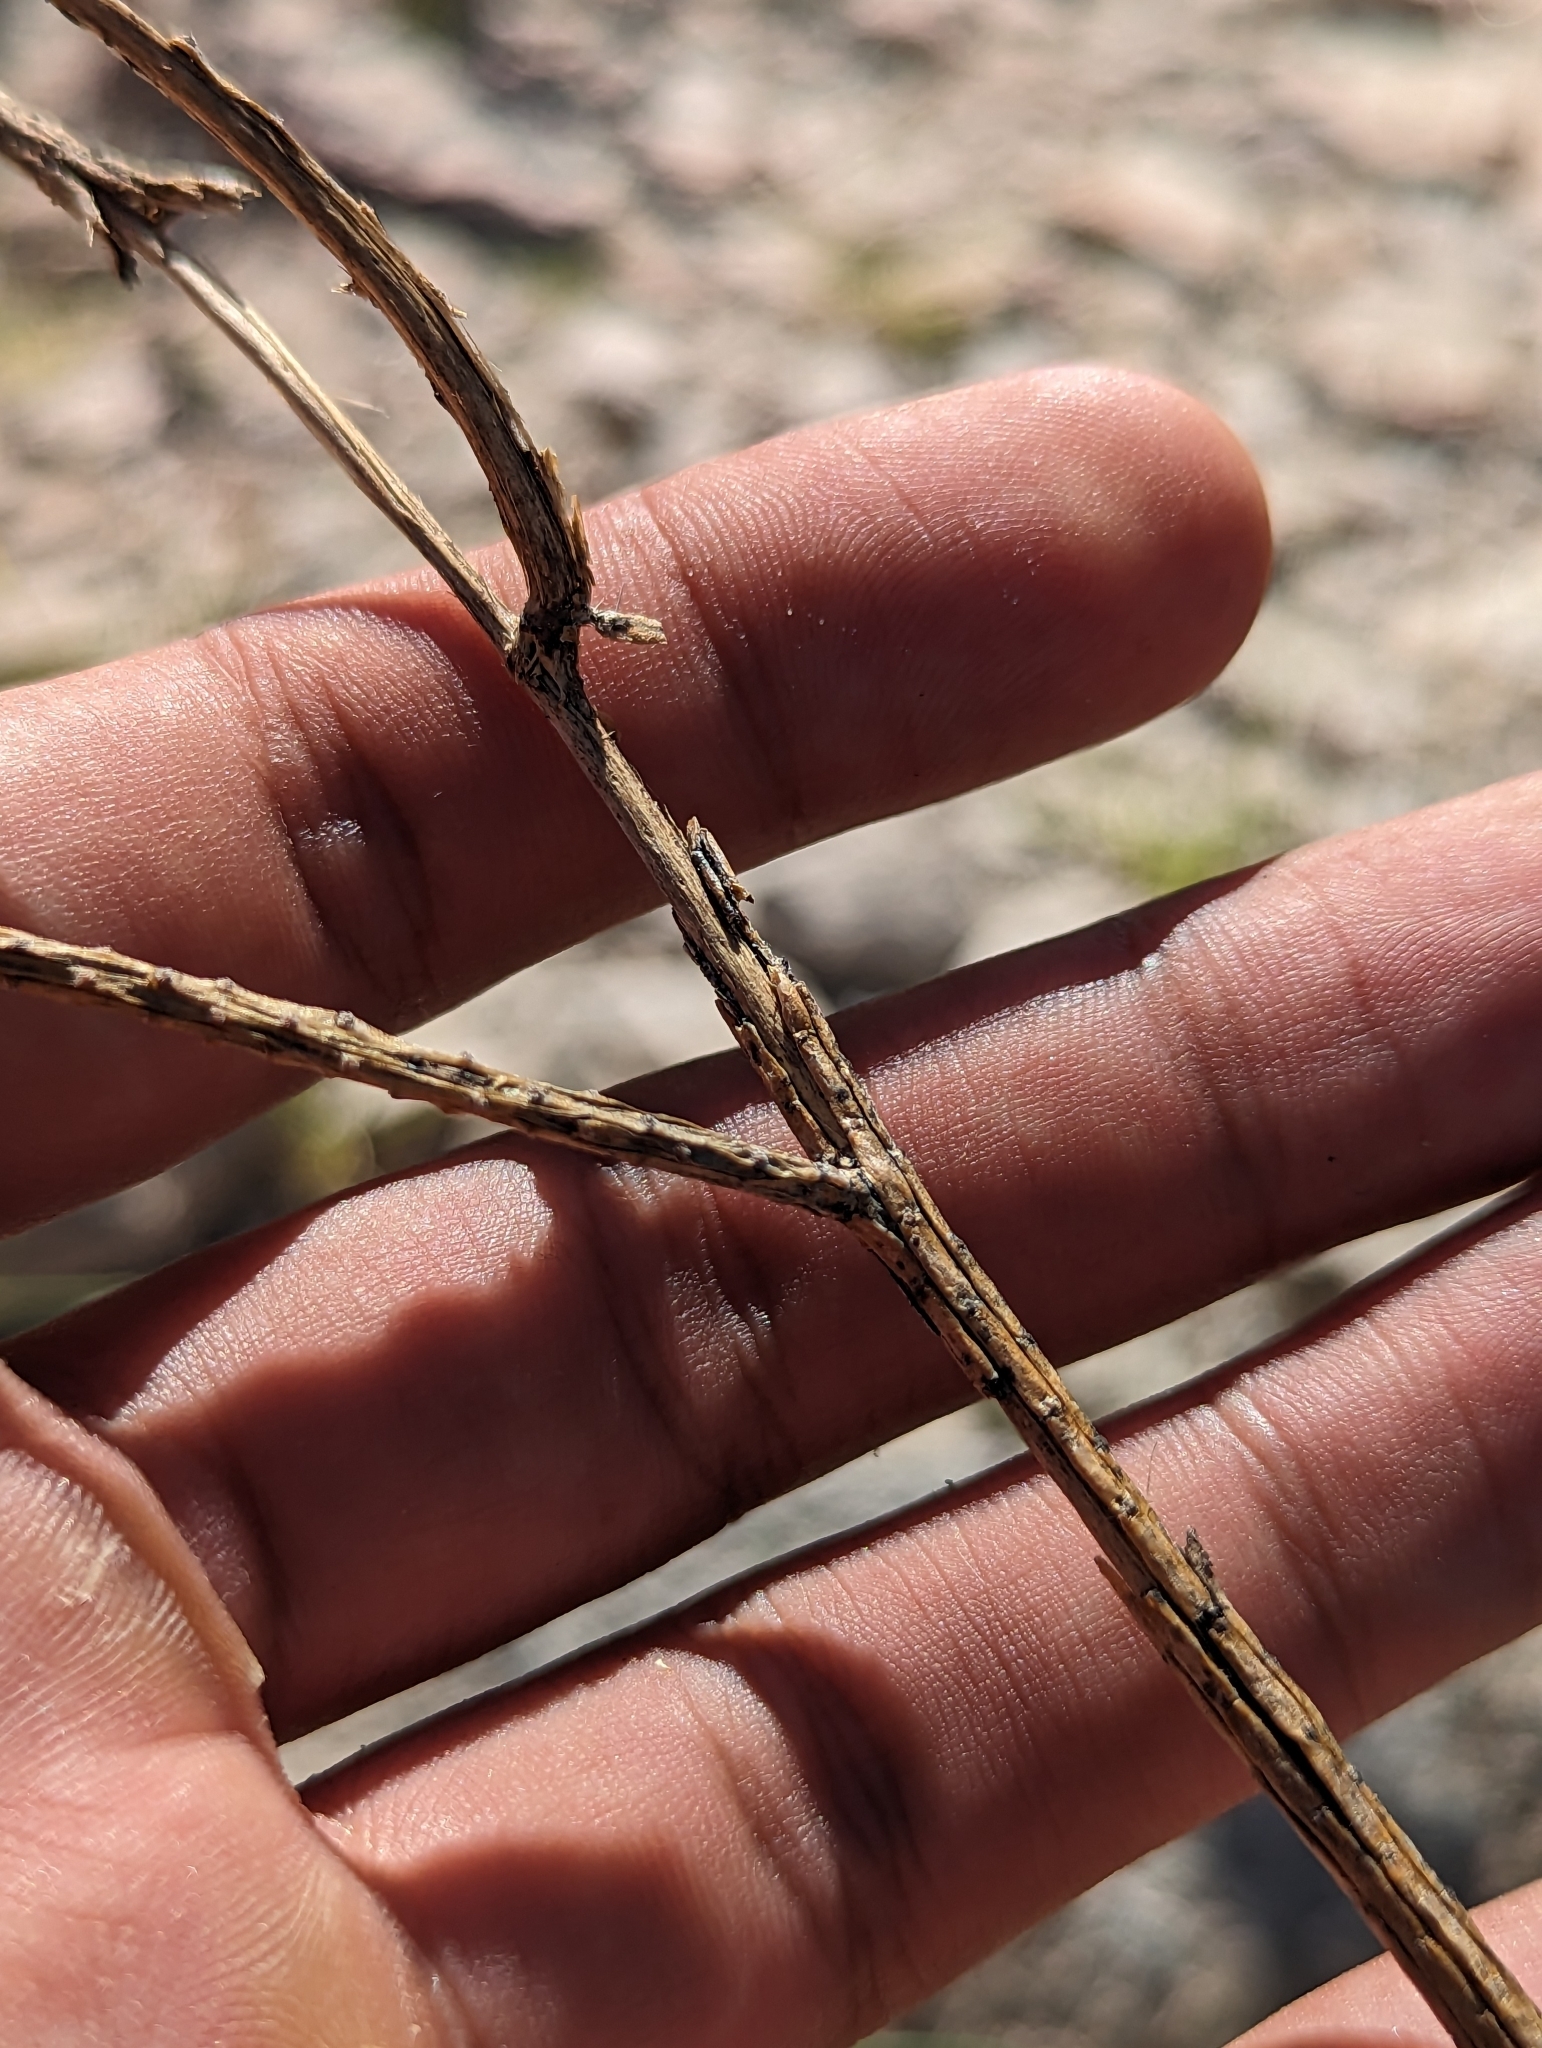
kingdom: Plantae
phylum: Tracheophyta
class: Magnoliopsida
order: Caryophyllales
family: Cactaceae
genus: Peniocereus
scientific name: Peniocereus striatus
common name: Gearstem cactus
